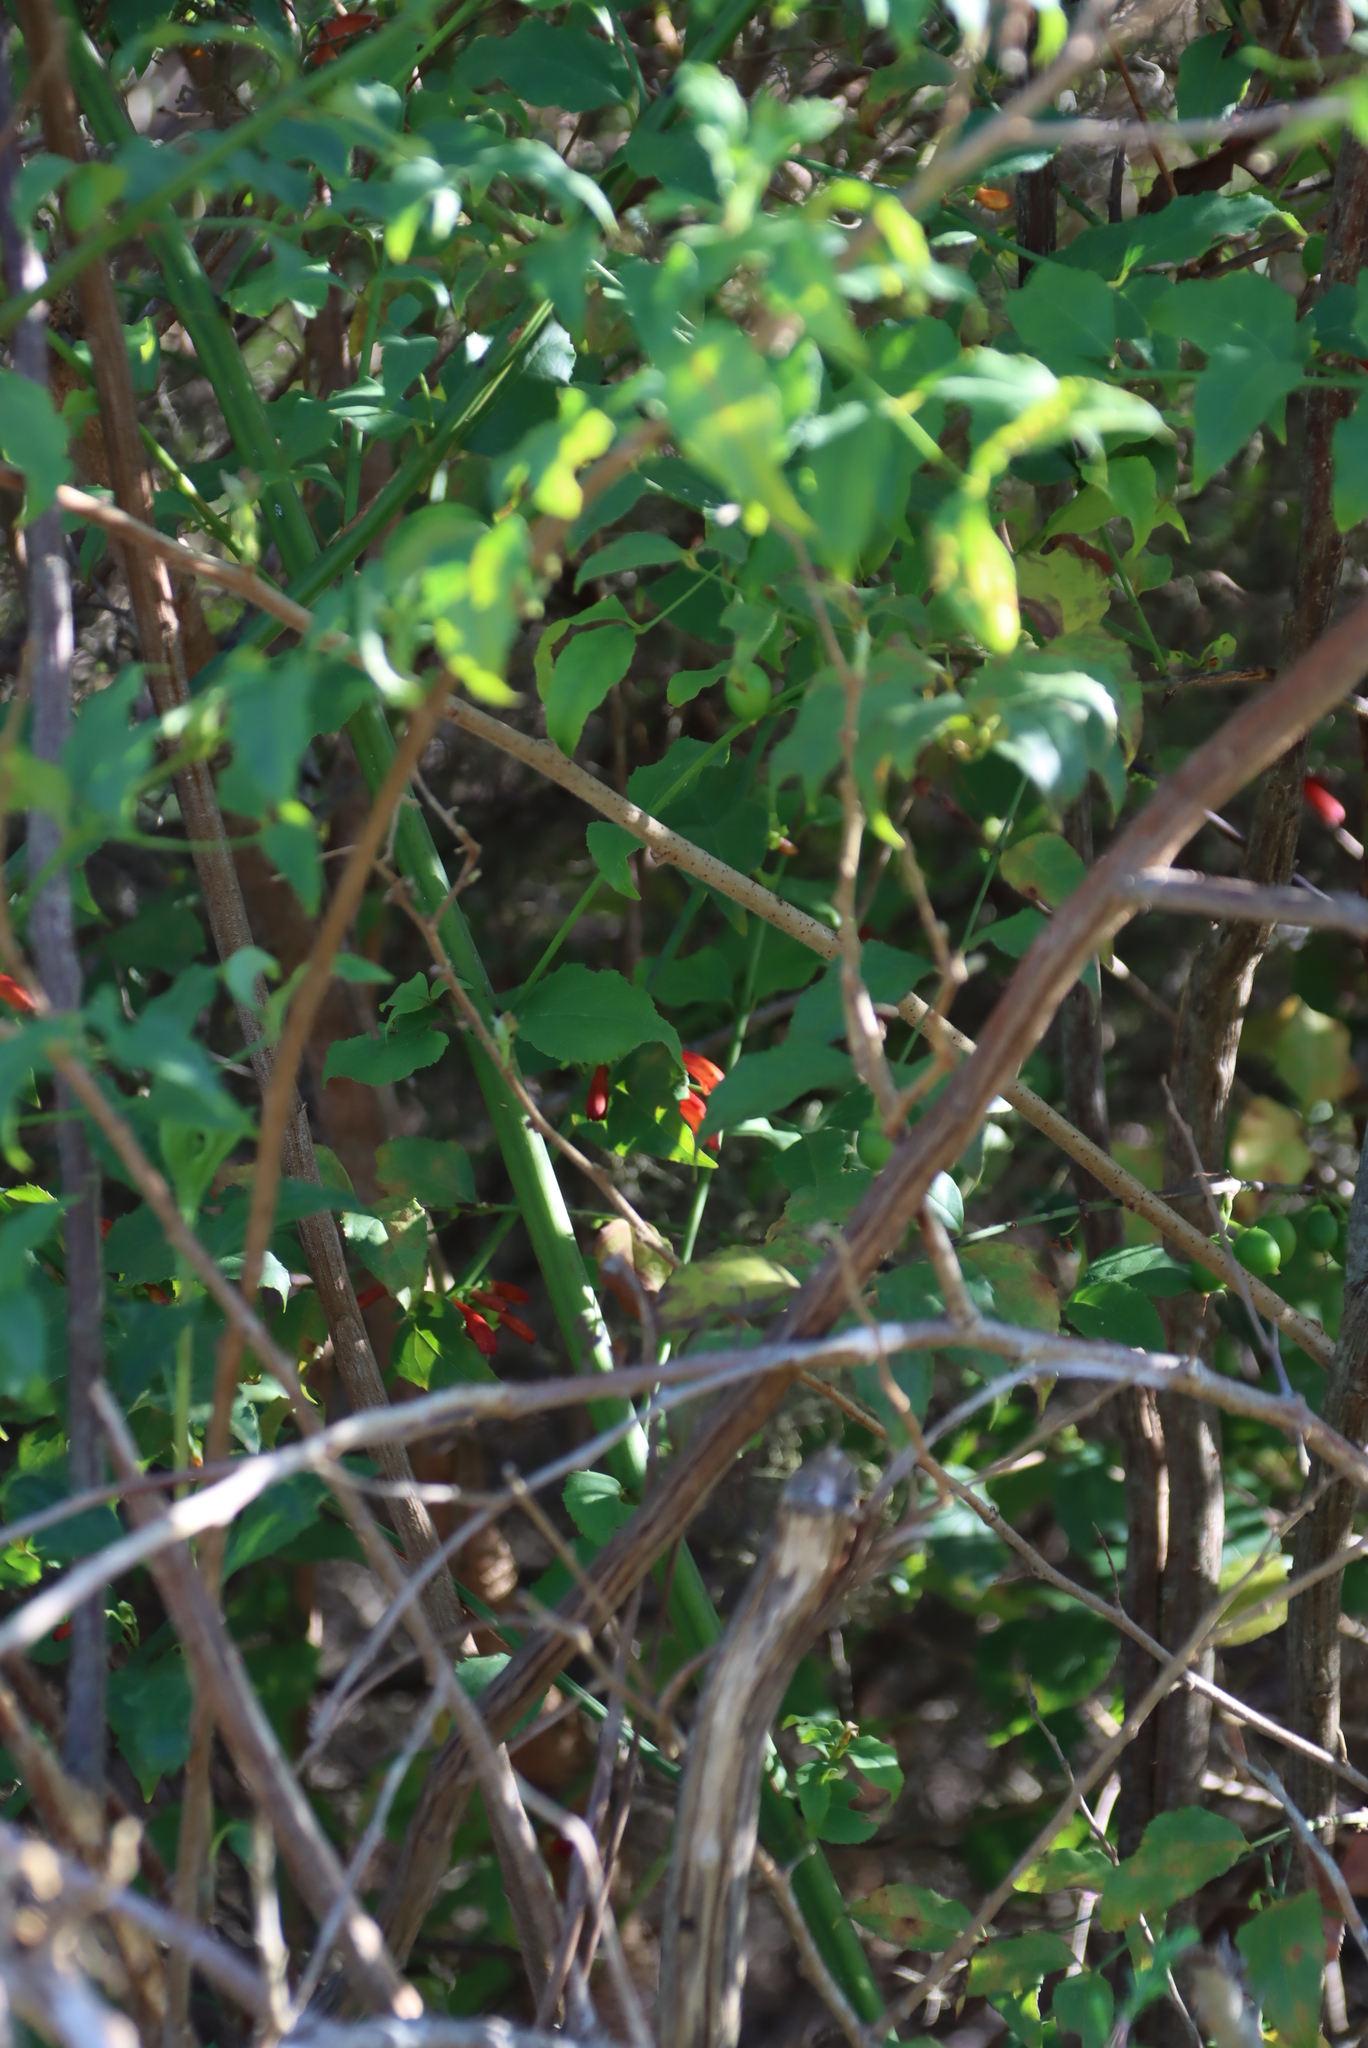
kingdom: Plantae
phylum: Tracheophyta
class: Magnoliopsida
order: Lamiales
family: Stilbaceae
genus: Halleria
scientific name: Halleria lucida
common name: Tree fuschia
